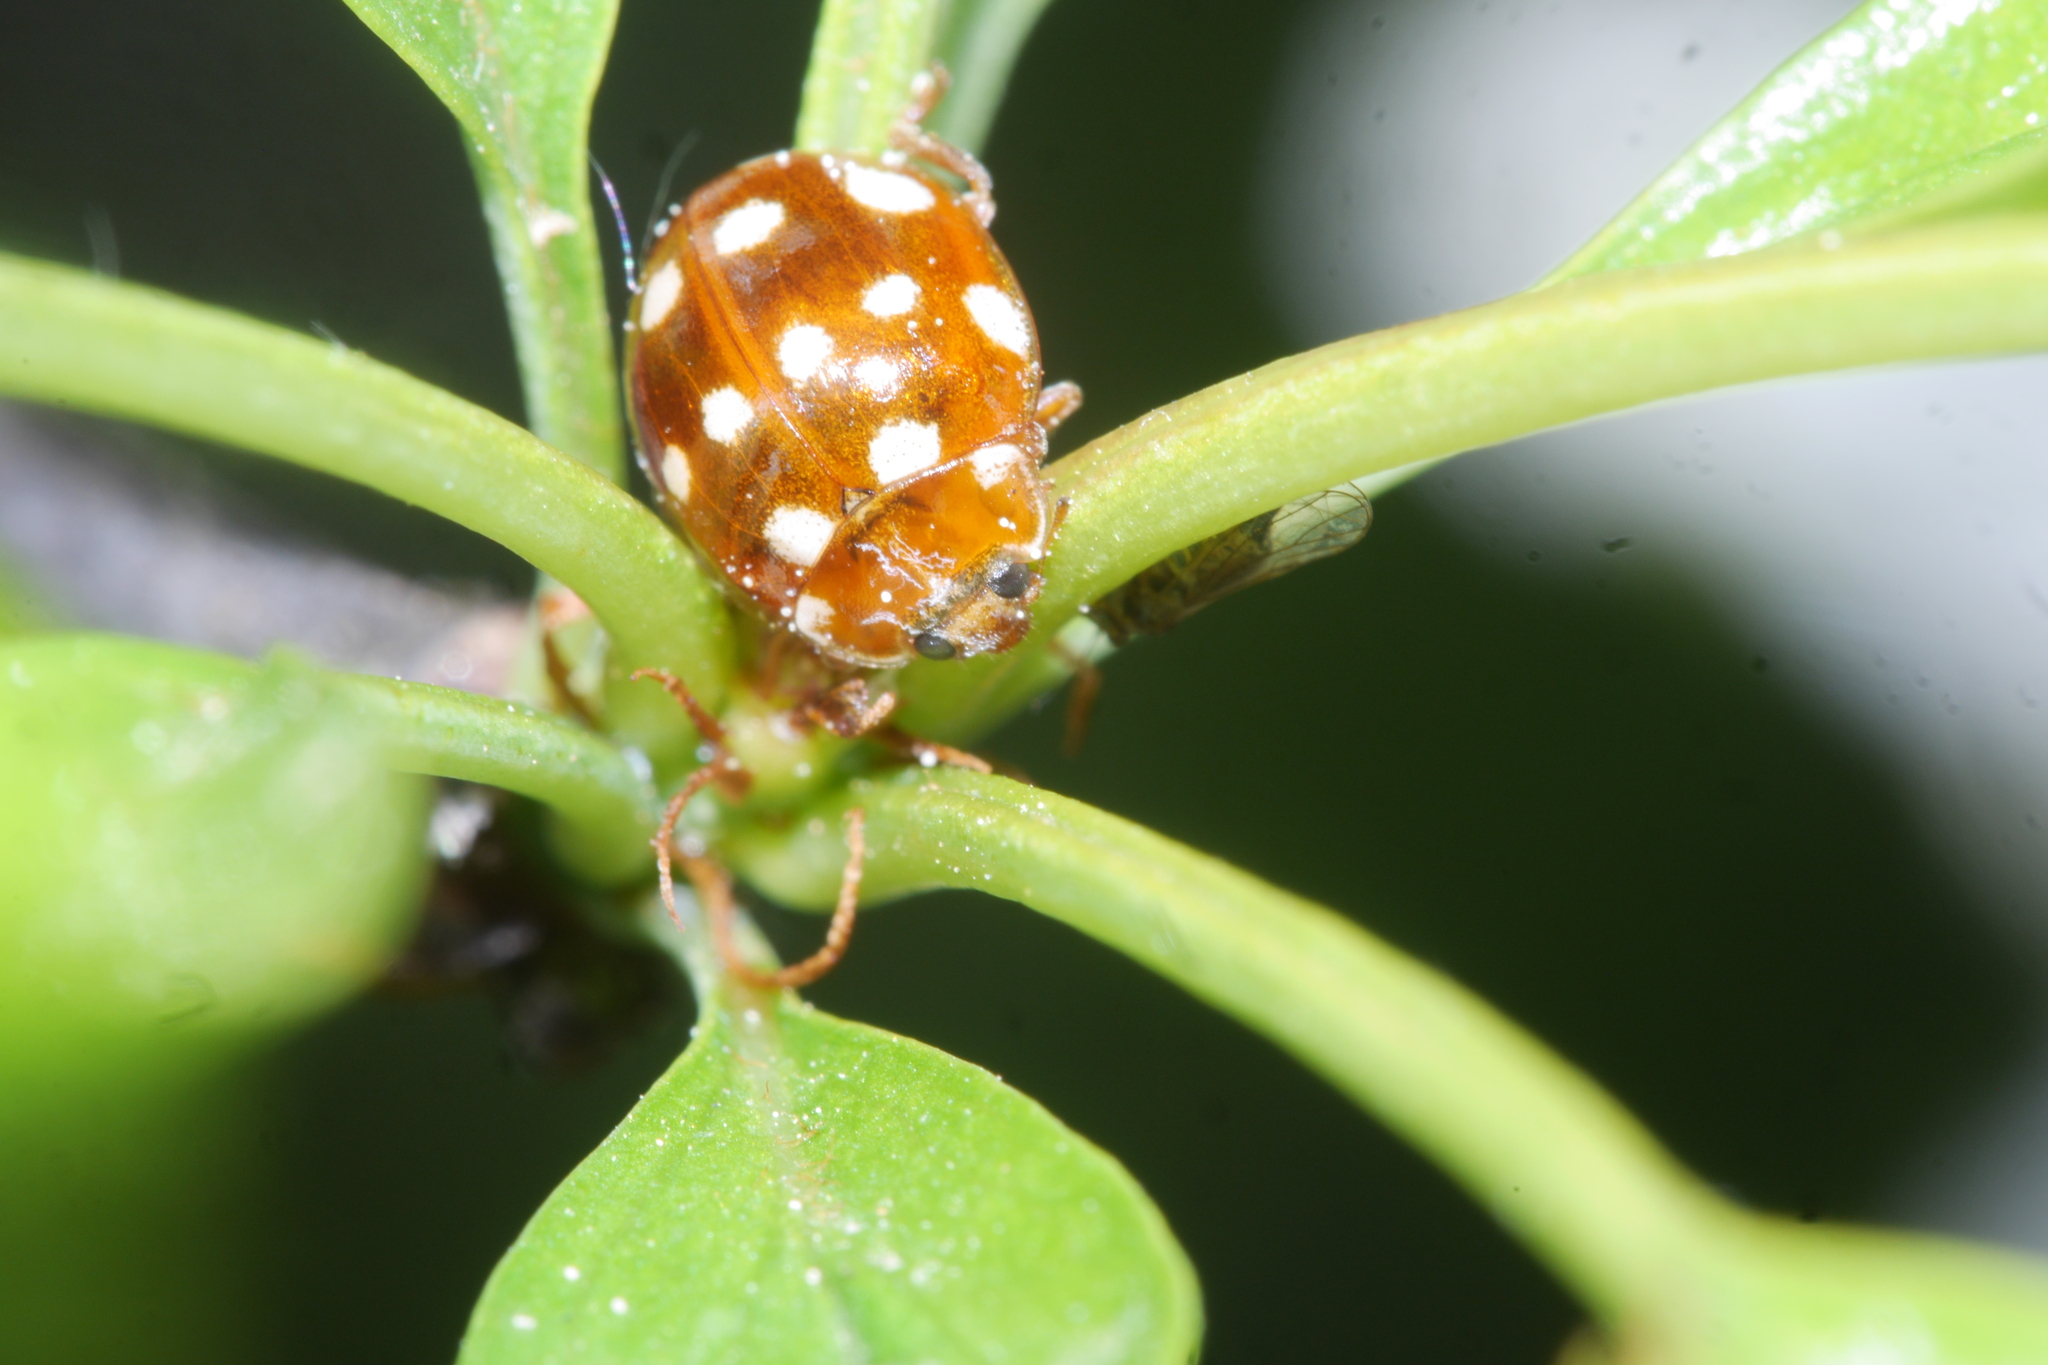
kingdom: Animalia
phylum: Arthropoda
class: Insecta
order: Coleoptera
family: Coccinellidae
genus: Calvia
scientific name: Calvia quatuordecimguttata
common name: Cream-spot ladybird
